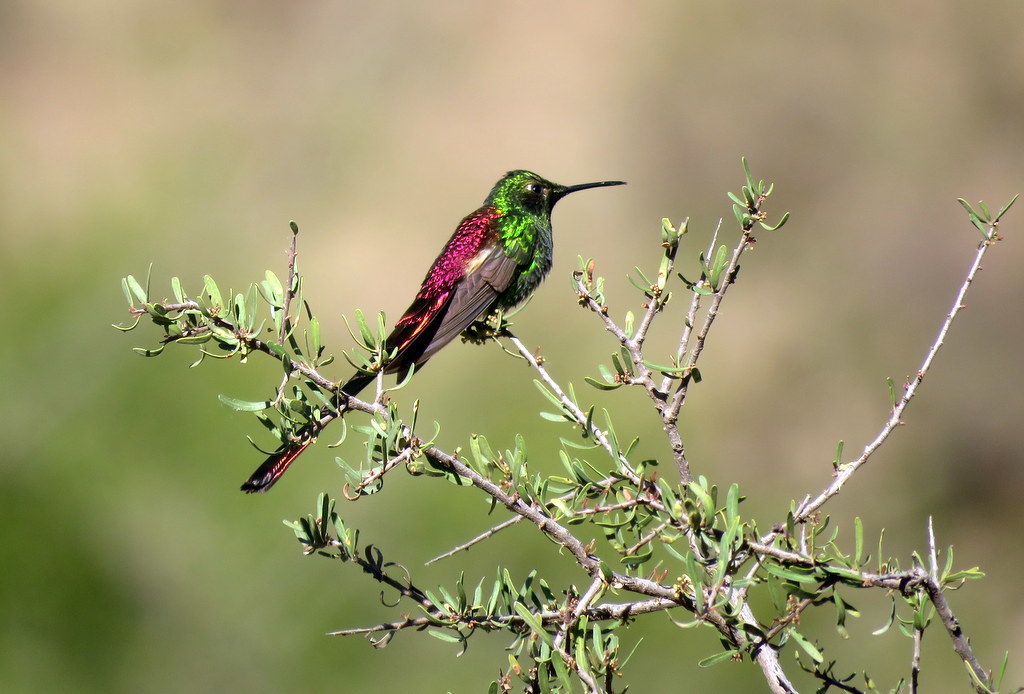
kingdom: Animalia
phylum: Chordata
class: Aves
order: Apodiformes
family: Trochilidae
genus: Sappho
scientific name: Sappho sparganurus
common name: Red-tailed comet
